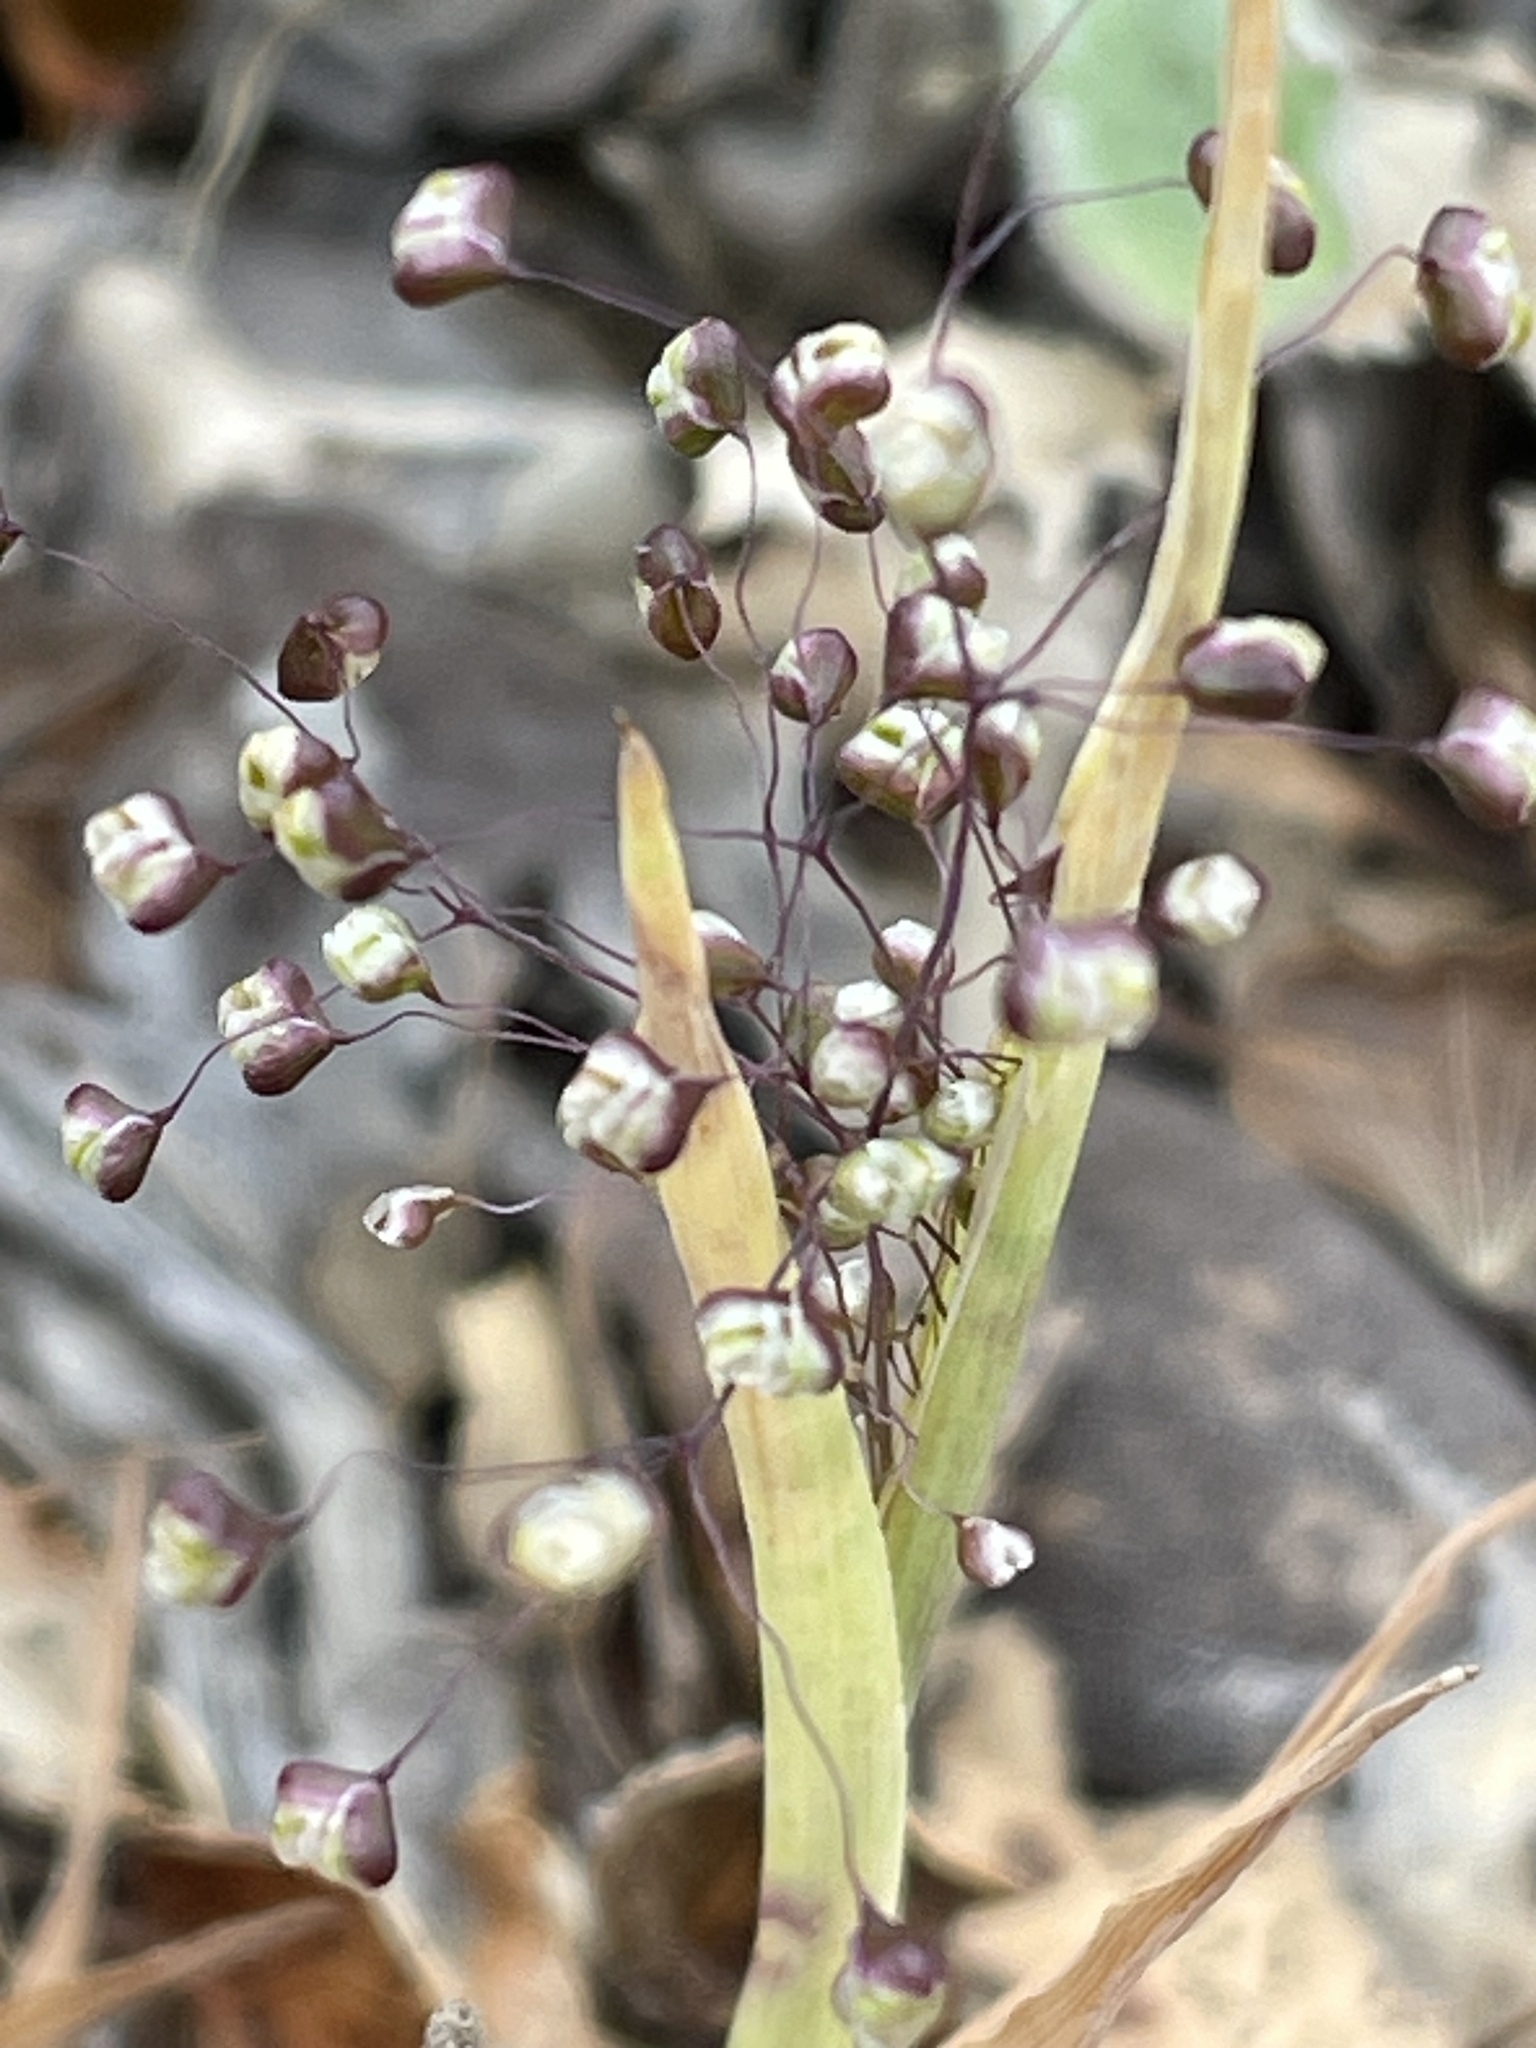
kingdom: Plantae
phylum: Tracheophyta
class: Liliopsida
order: Poales
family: Poaceae
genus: Briza
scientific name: Briza minor
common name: Lesser quaking-grass
